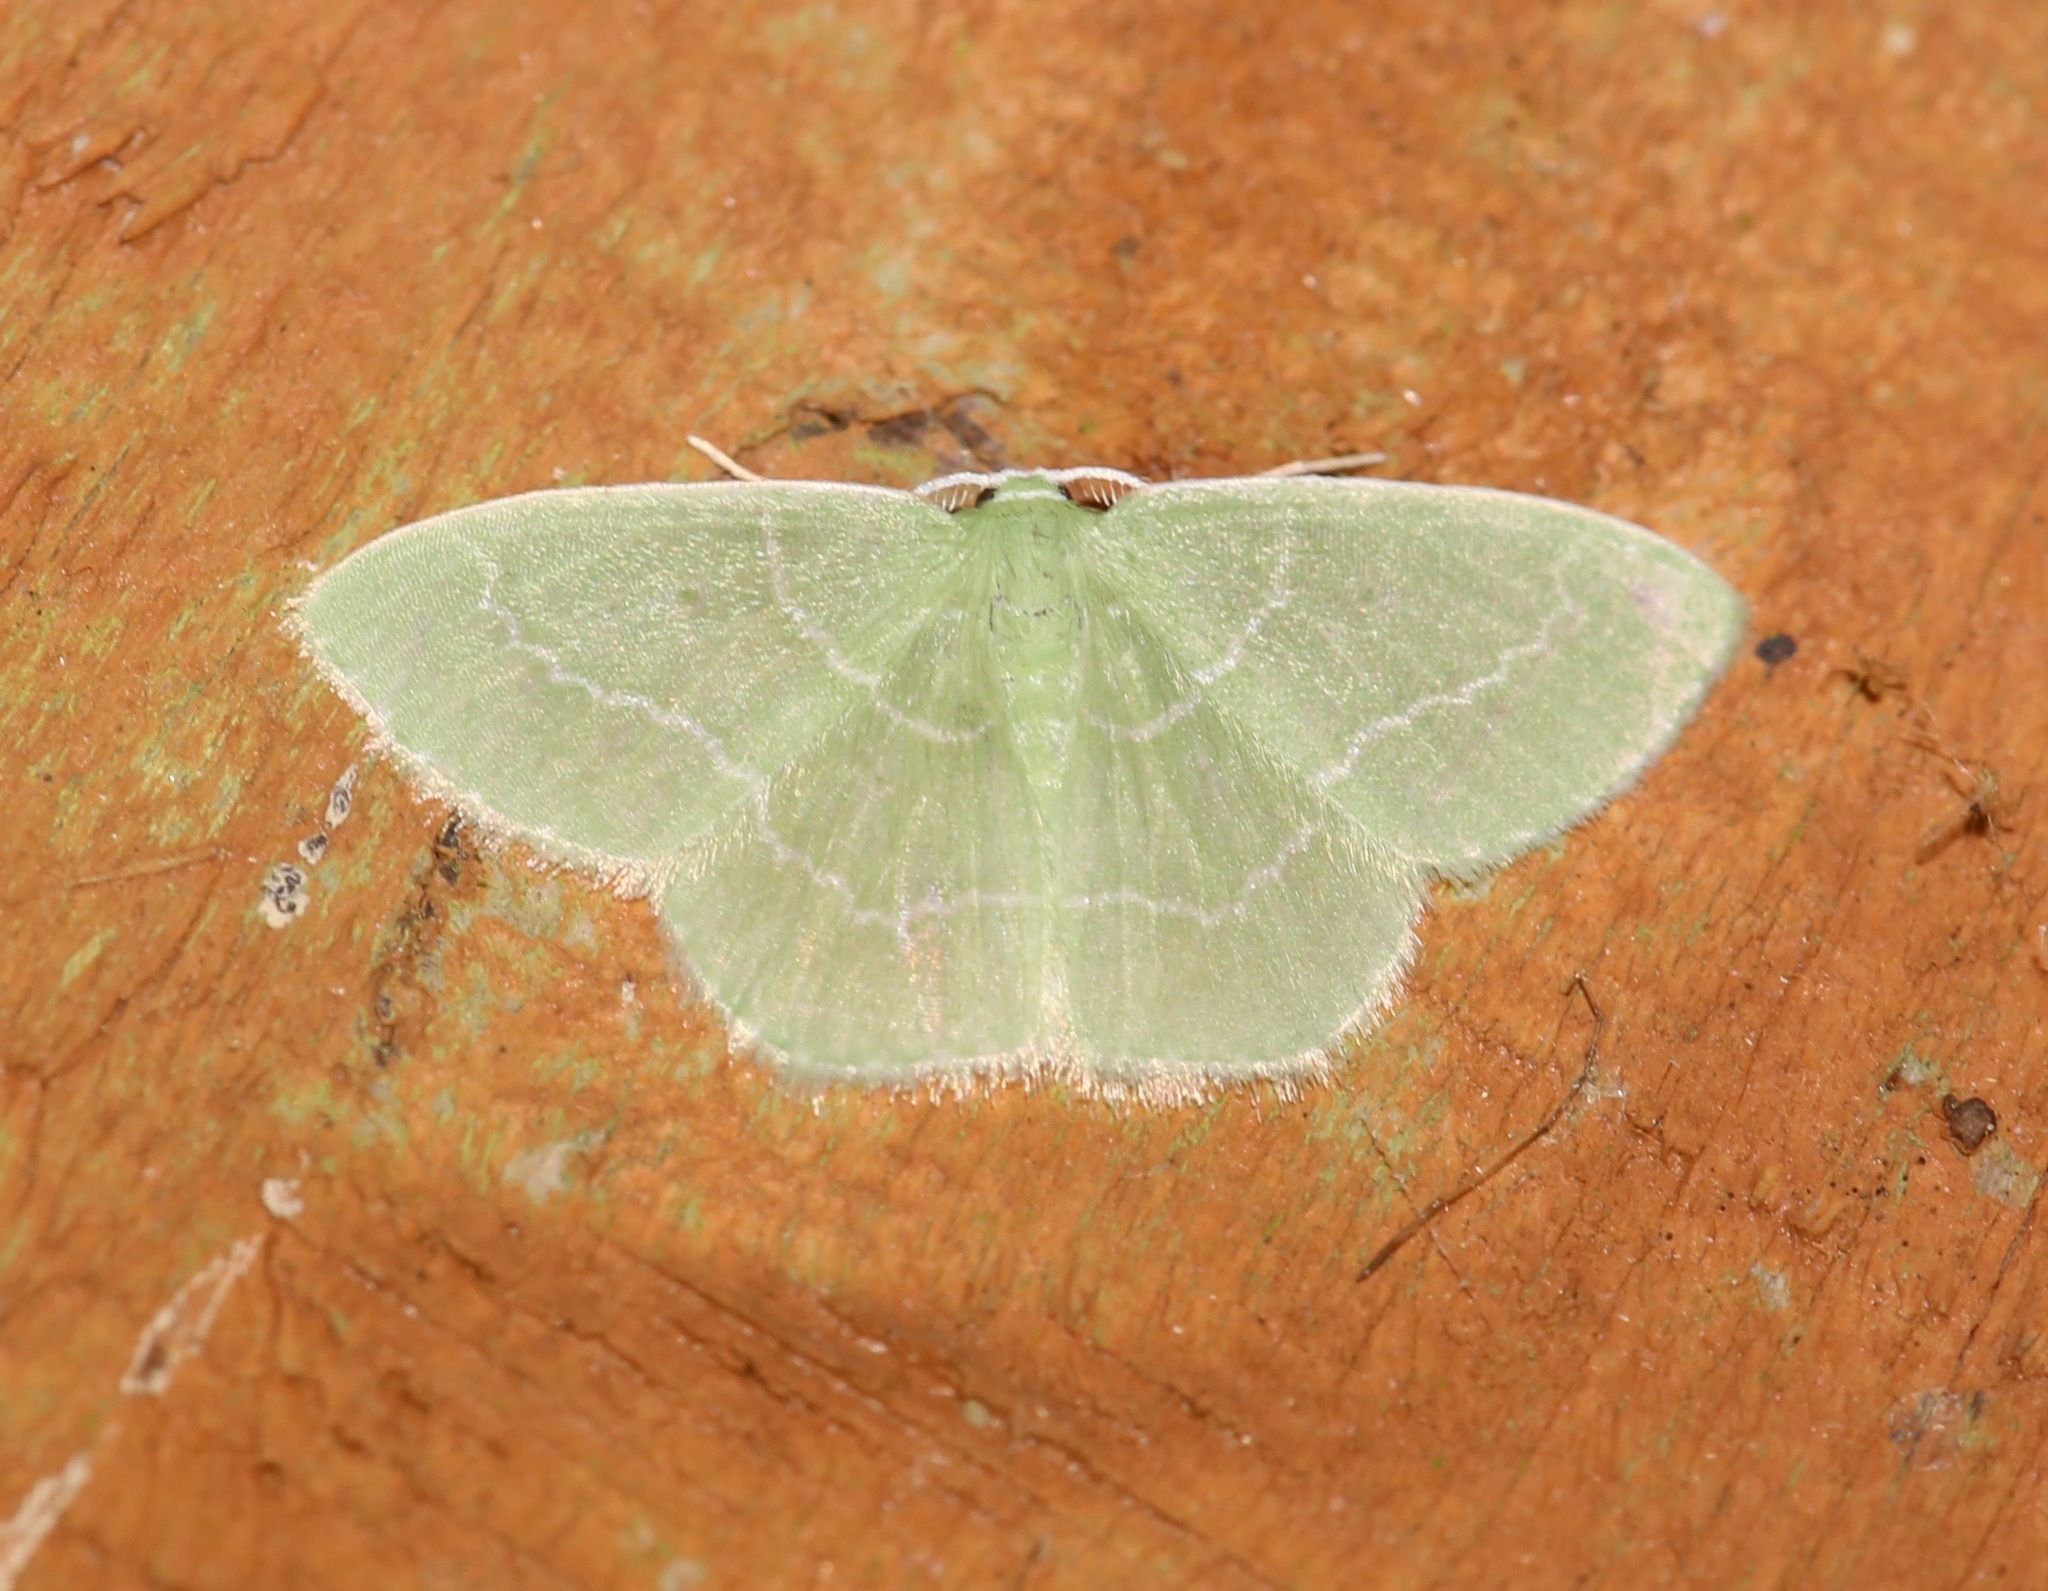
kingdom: Animalia
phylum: Arthropoda
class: Insecta
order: Lepidoptera
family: Geometridae
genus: Nemoria
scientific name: Nemoria elfa
